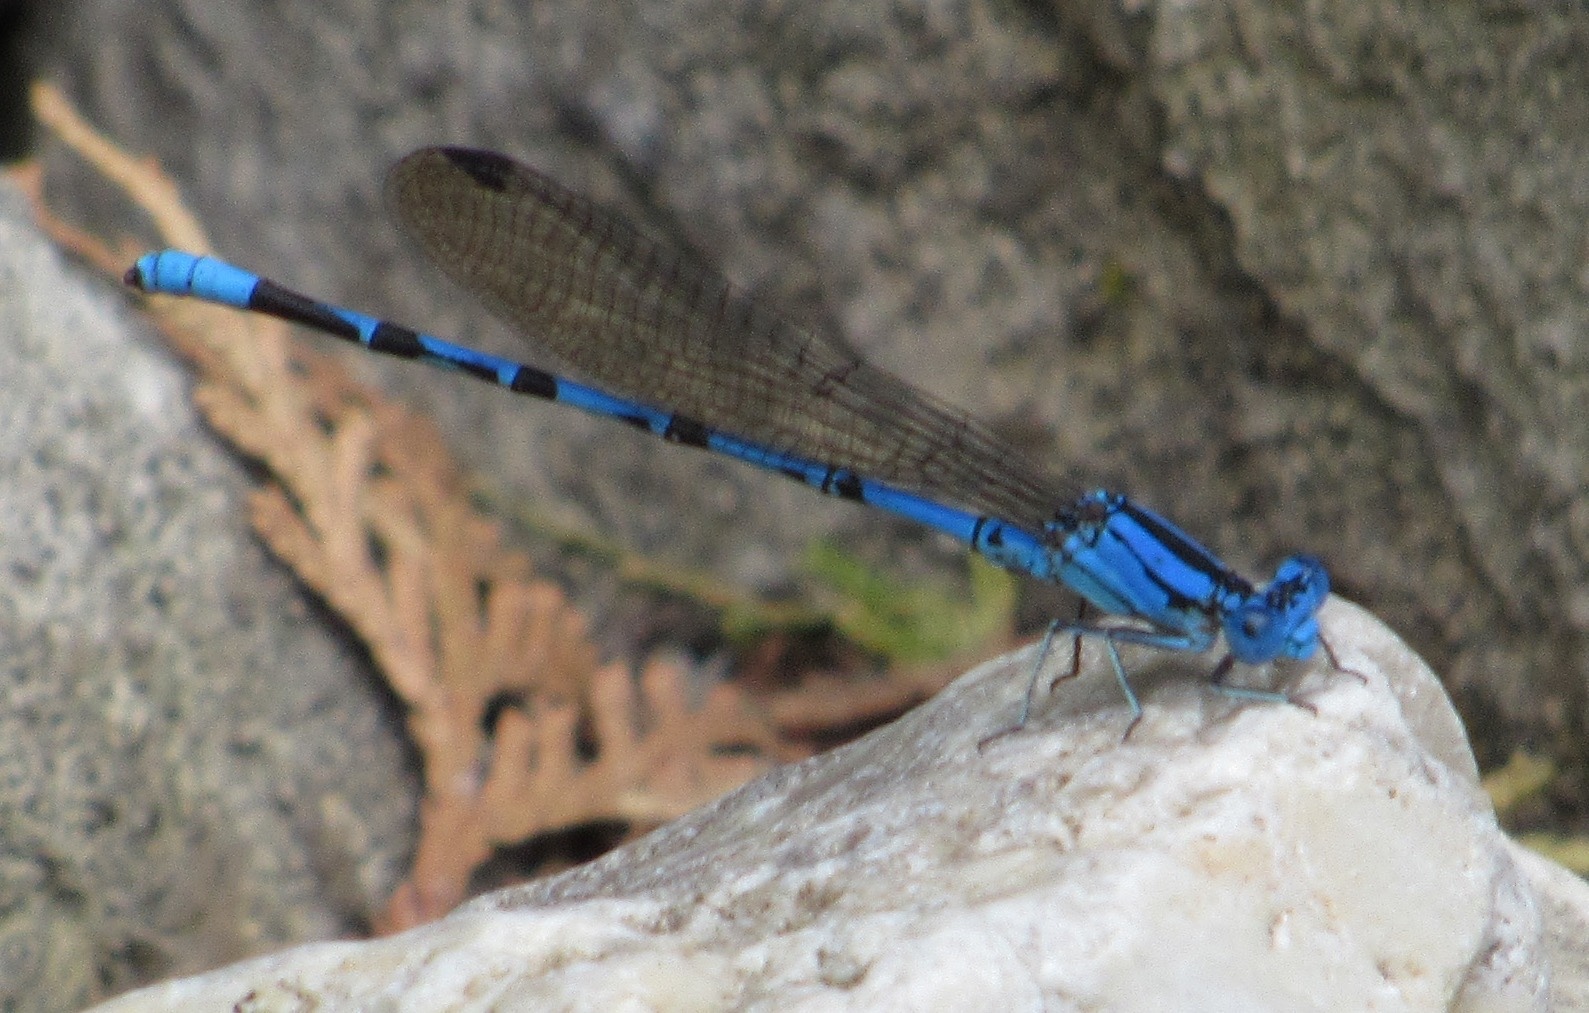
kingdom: Animalia
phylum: Arthropoda
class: Insecta
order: Odonata
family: Coenagrionidae
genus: Argia
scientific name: Argia funebris
